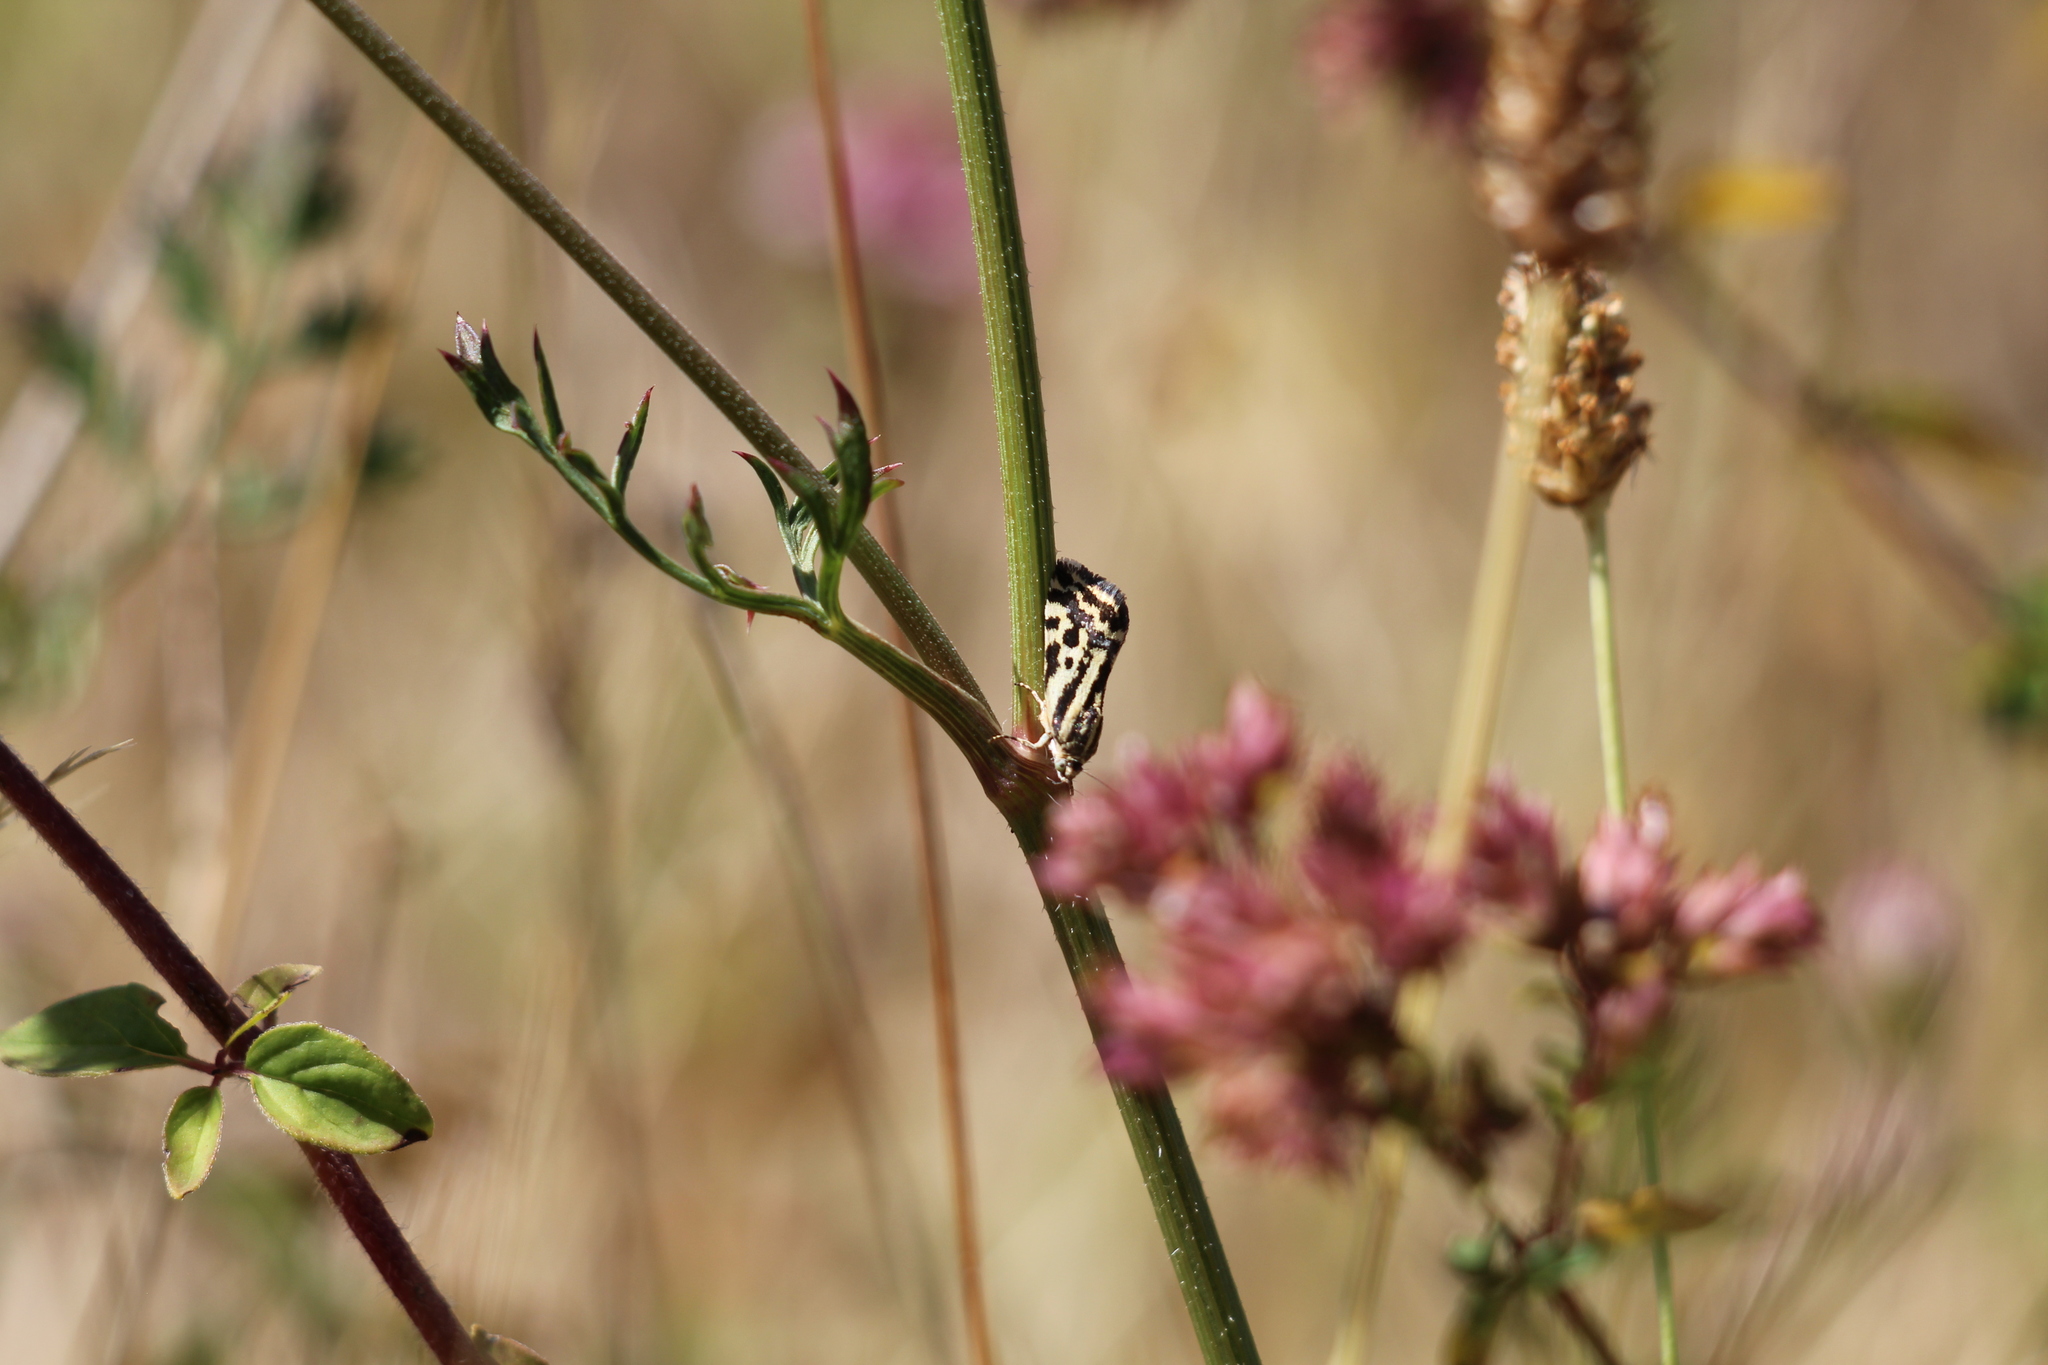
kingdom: Animalia
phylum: Arthropoda
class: Insecta
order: Lepidoptera
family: Noctuidae
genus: Acontia
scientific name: Acontia trabealis
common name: Spotted sulphur
